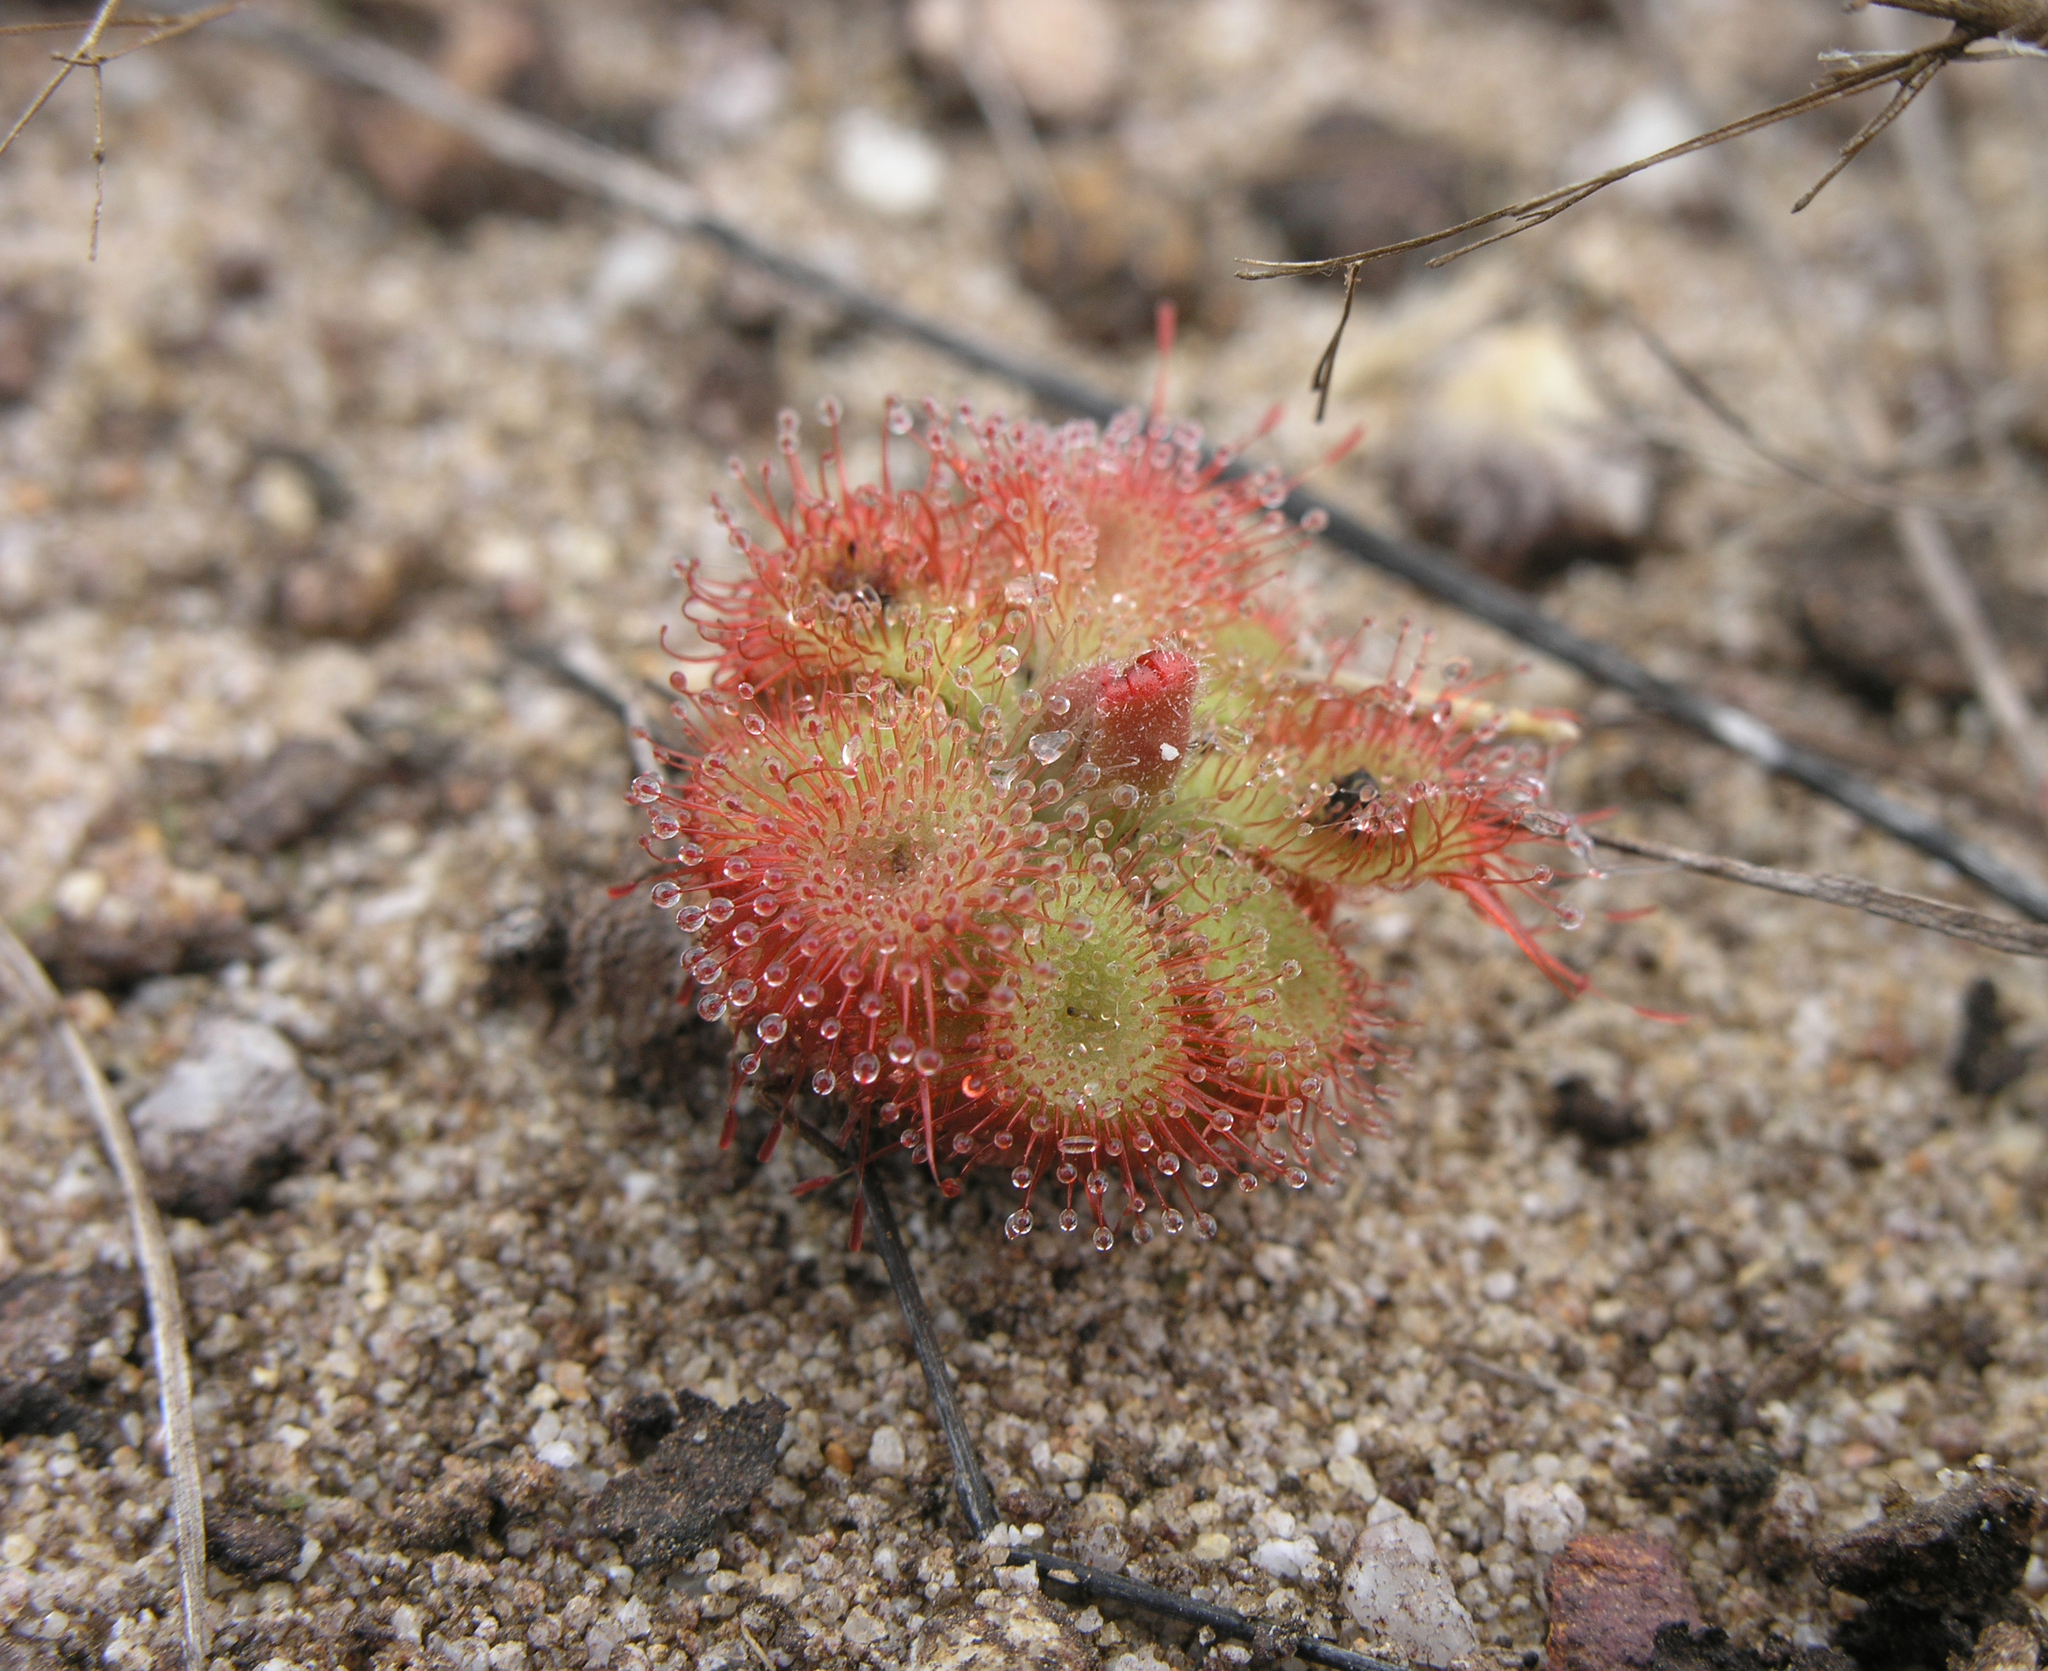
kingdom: Plantae
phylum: Tracheophyta
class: Magnoliopsida
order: Caryophyllales
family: Droseraceae
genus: Drosera
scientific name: Drosera spatulata
